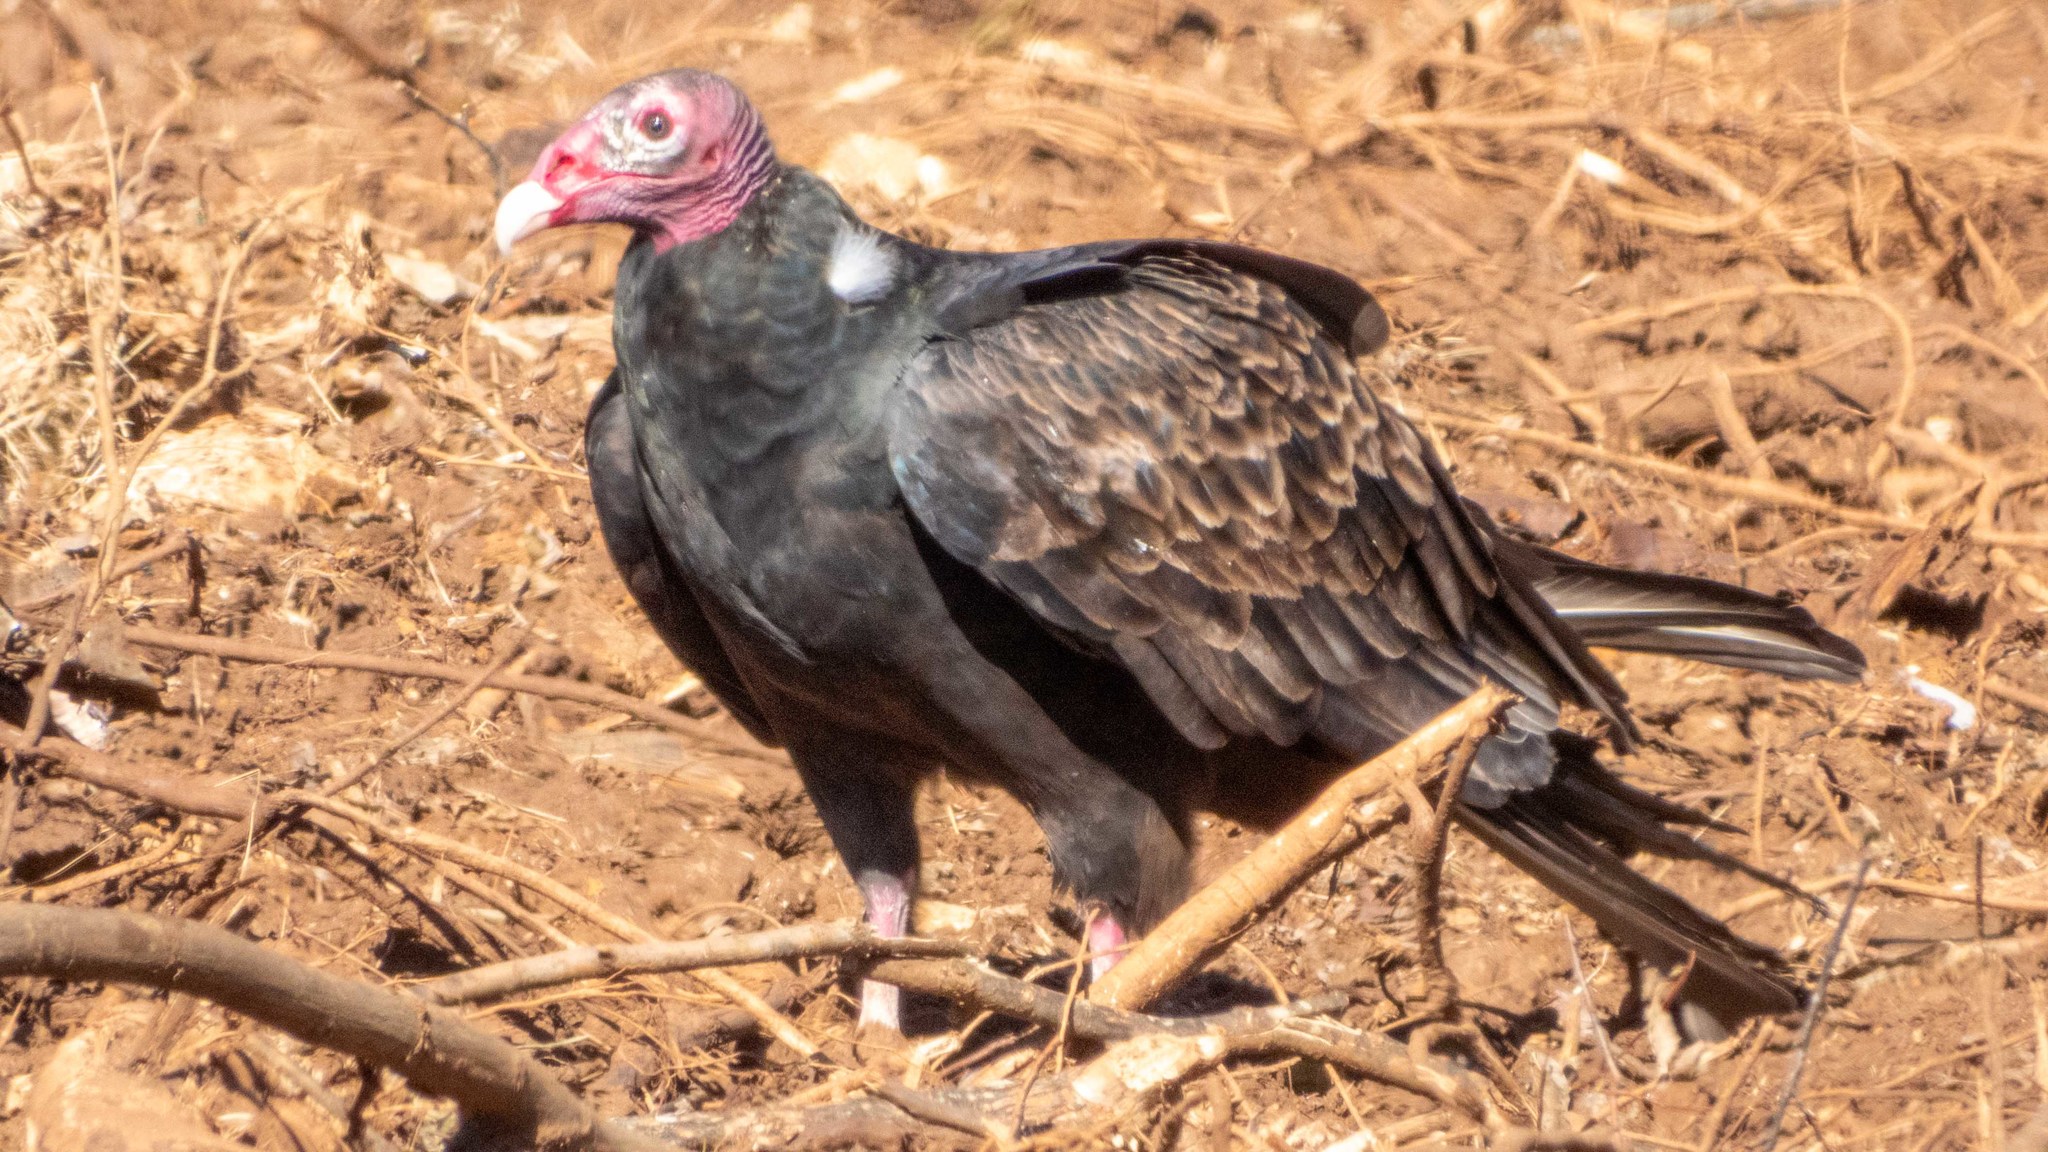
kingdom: Animalia
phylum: Chordata
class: Aves
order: Accipitriformes
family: Cathartidae
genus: Cathartes
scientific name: Cathartes aura
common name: Turkey vulture
